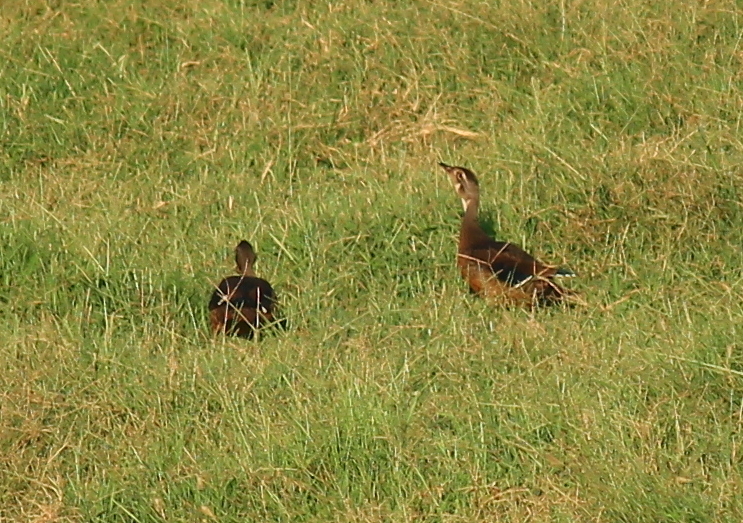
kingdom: Animalia
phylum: Chordata
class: Aves
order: Anseriformes
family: Anatidae
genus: Aix
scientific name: Aix sponsa
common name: Wood duck
